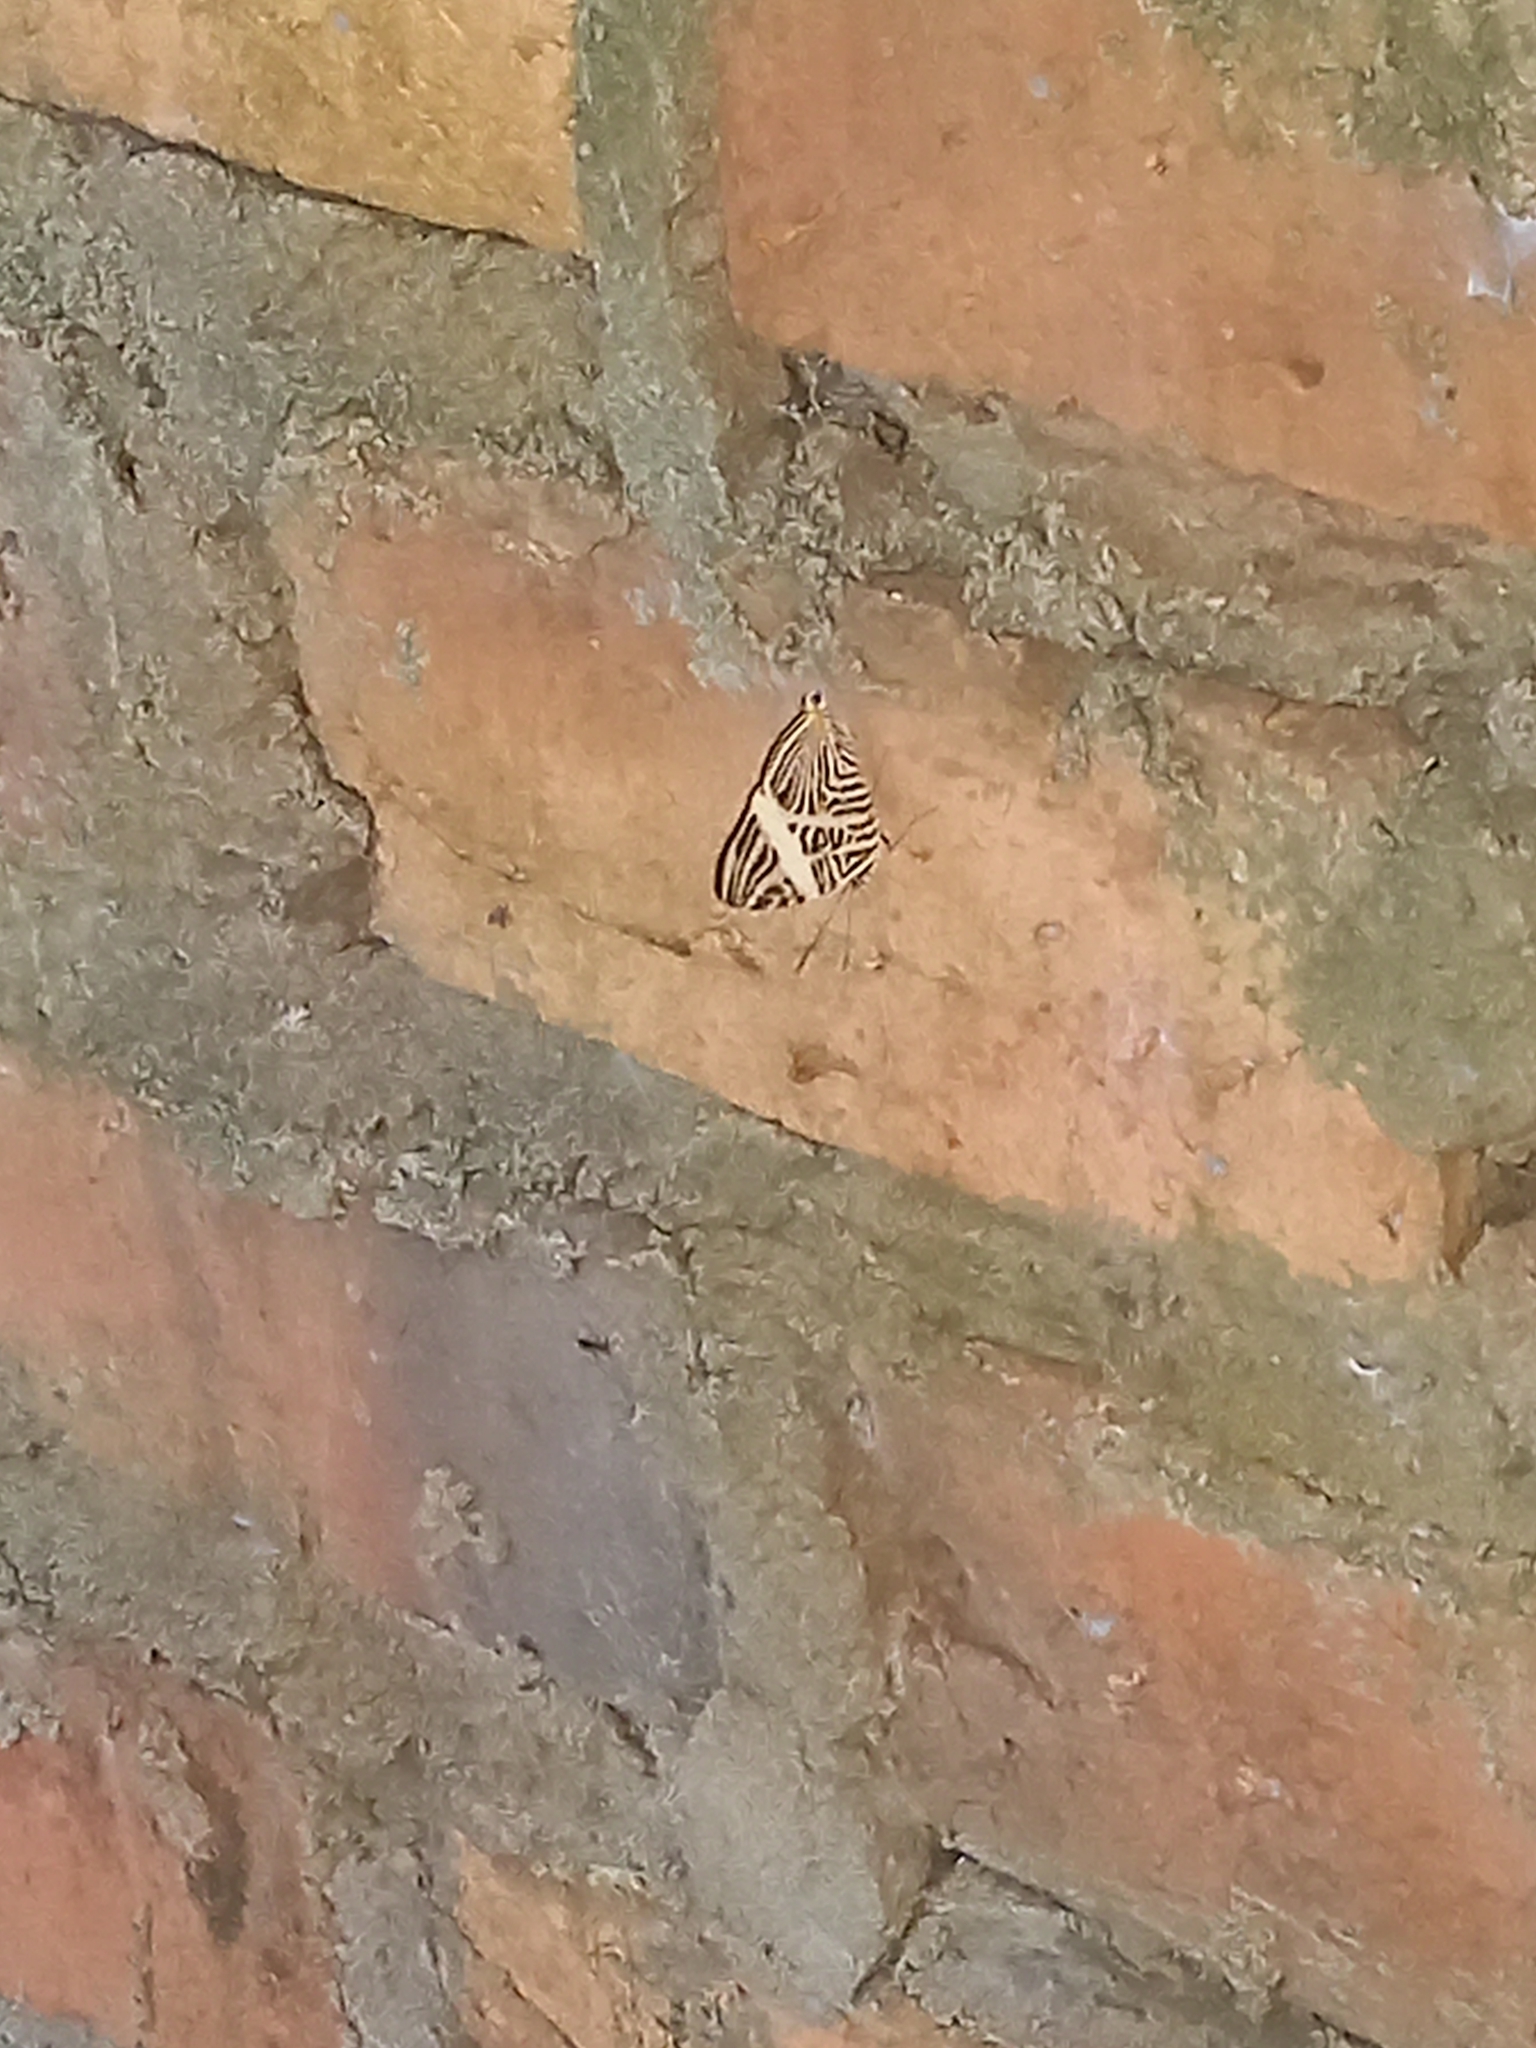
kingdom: Animalia
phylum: Arthropoda
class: Insecta
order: Lepidoptera
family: Nymphalidae
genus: Colobura
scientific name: Colobura dirce
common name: Dirce beauty
